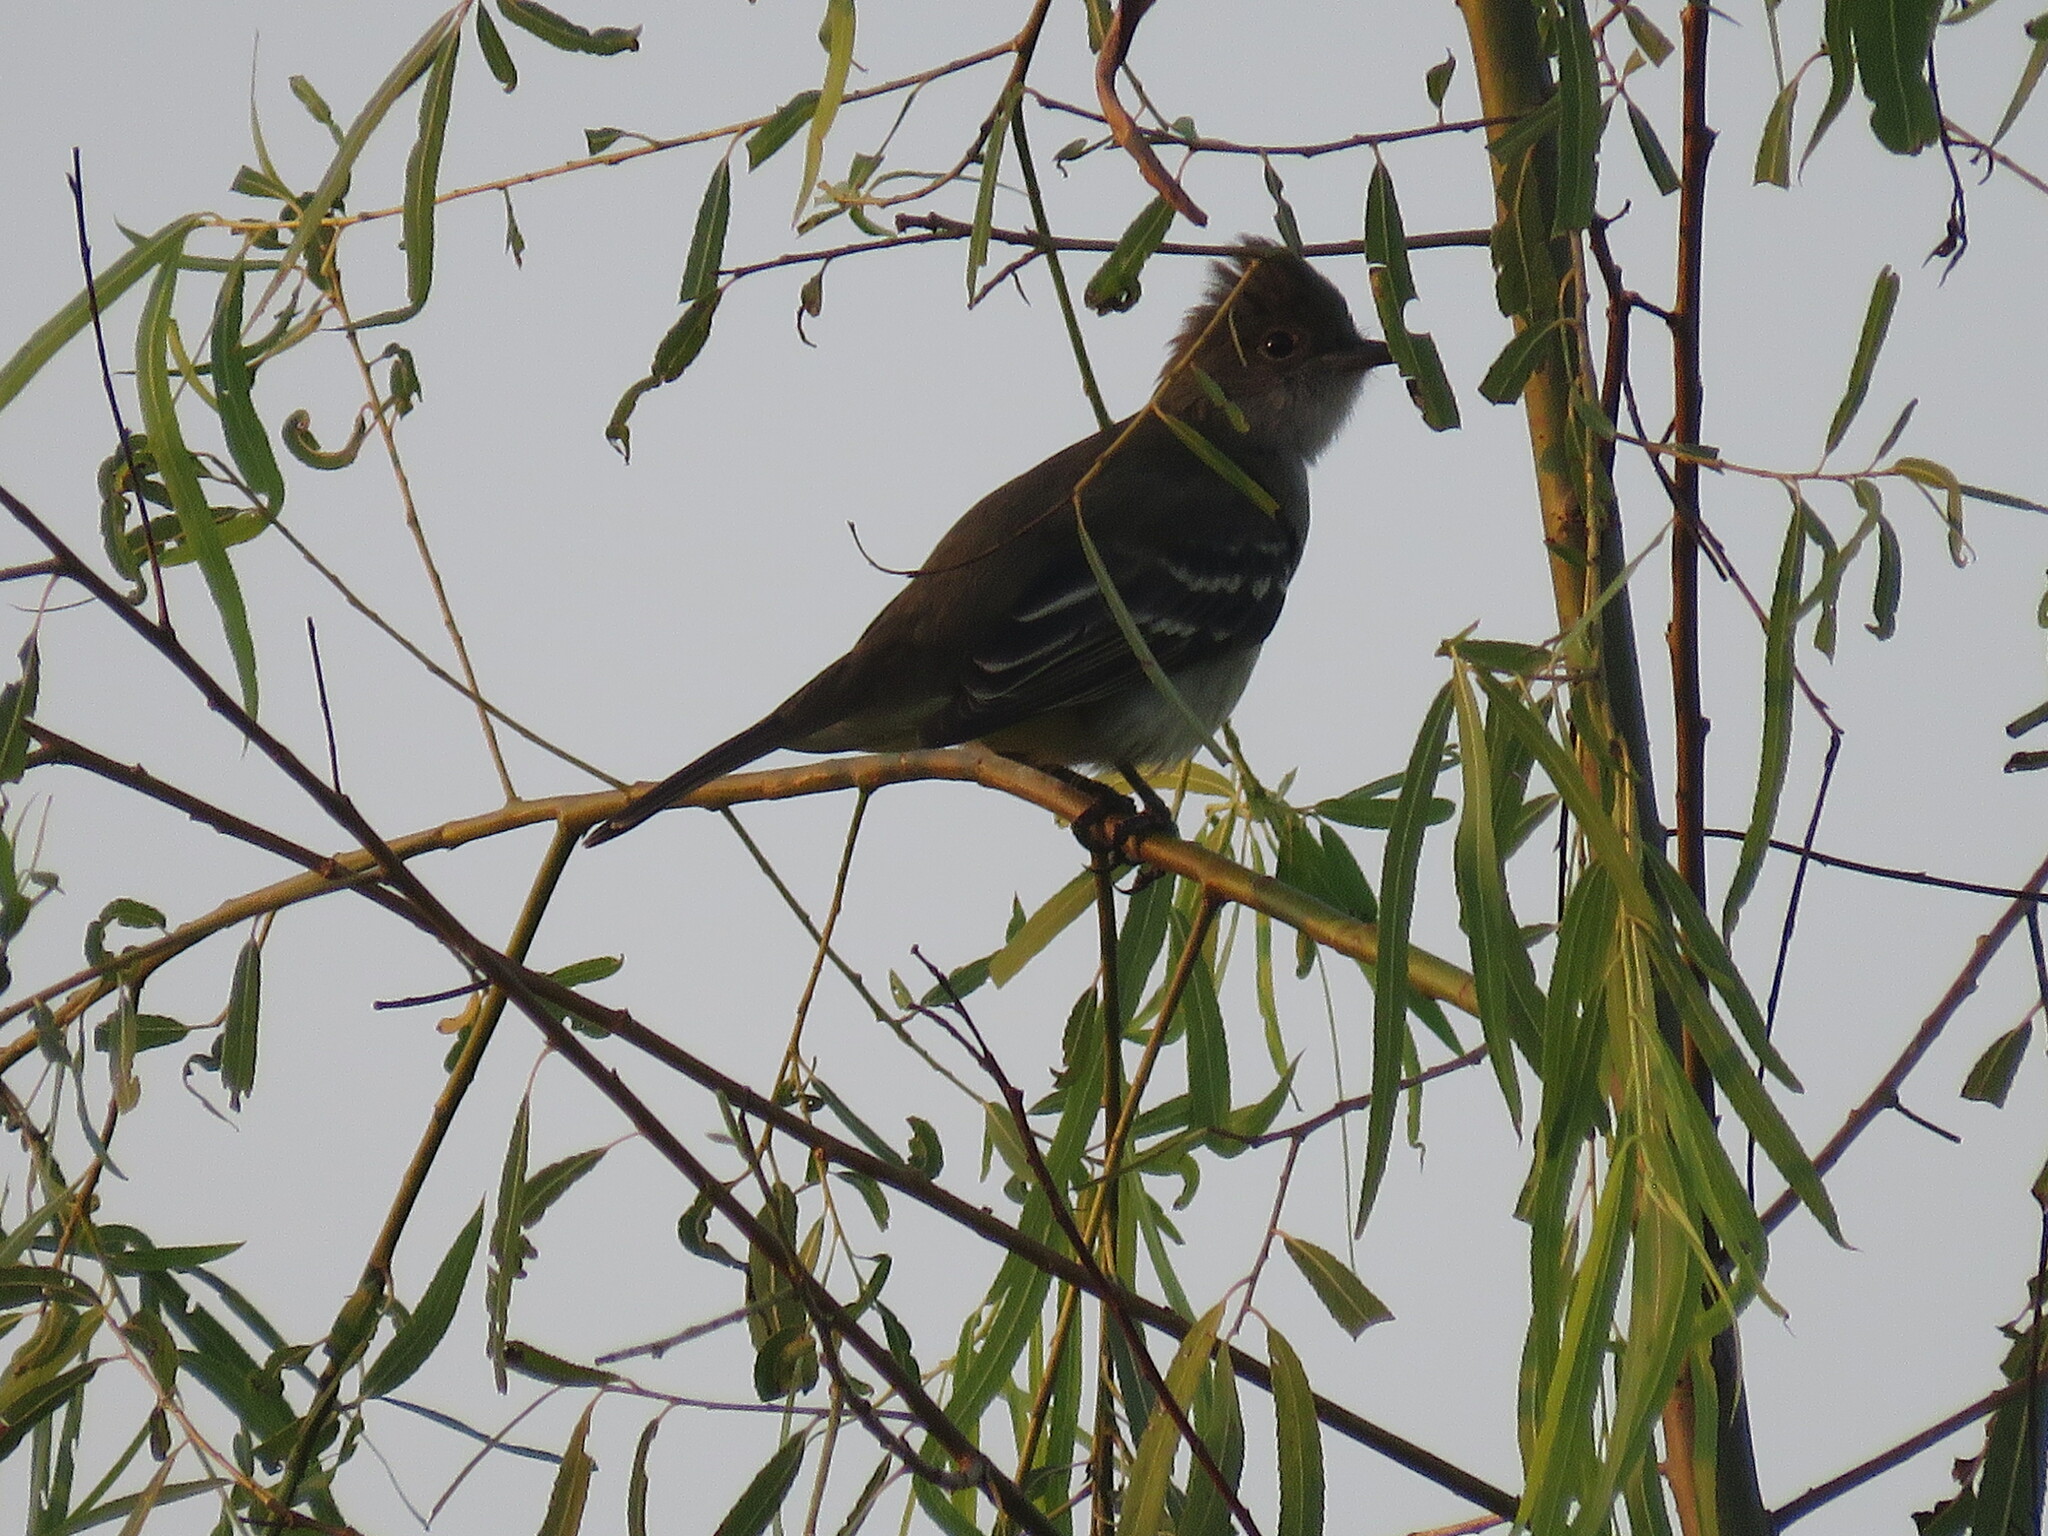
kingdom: Animalia
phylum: Chordata
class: Aves
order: Passeriformes
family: Tyrannidae
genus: Elaenia
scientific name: Elaenia albiceps
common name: White-crested elaenia
